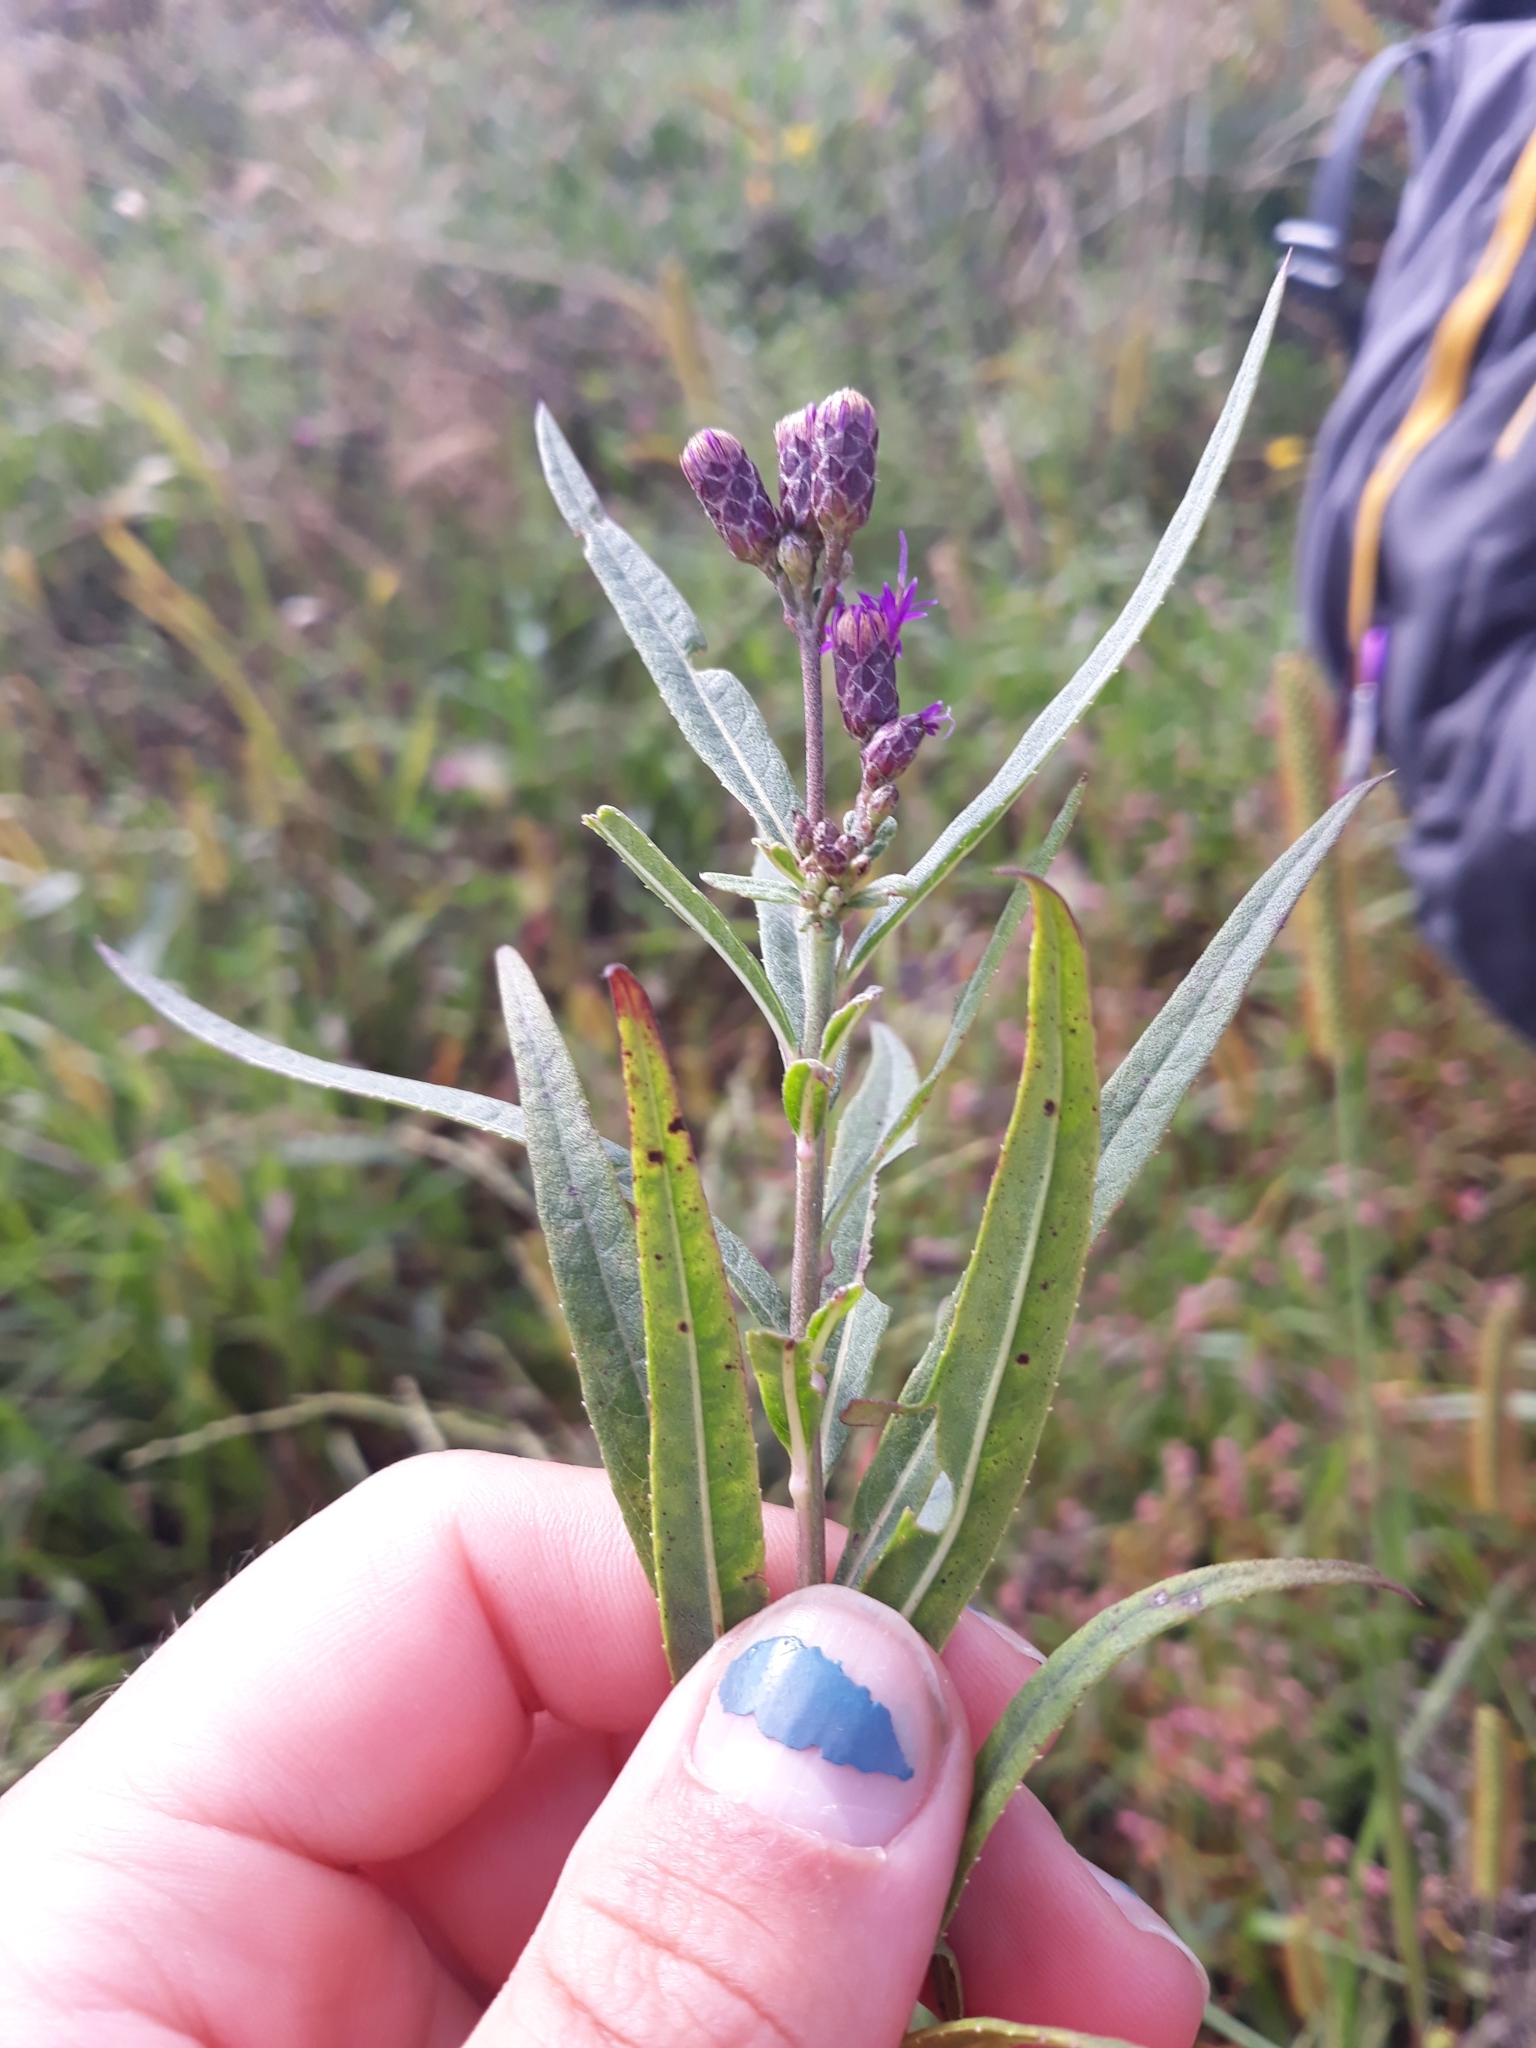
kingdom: Plantae
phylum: Tracheophyta
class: Magnoliopsida
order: Asterales
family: Asteraceae
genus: Vernonia
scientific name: Vernonia fasciculata
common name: Fascicled ironweed
